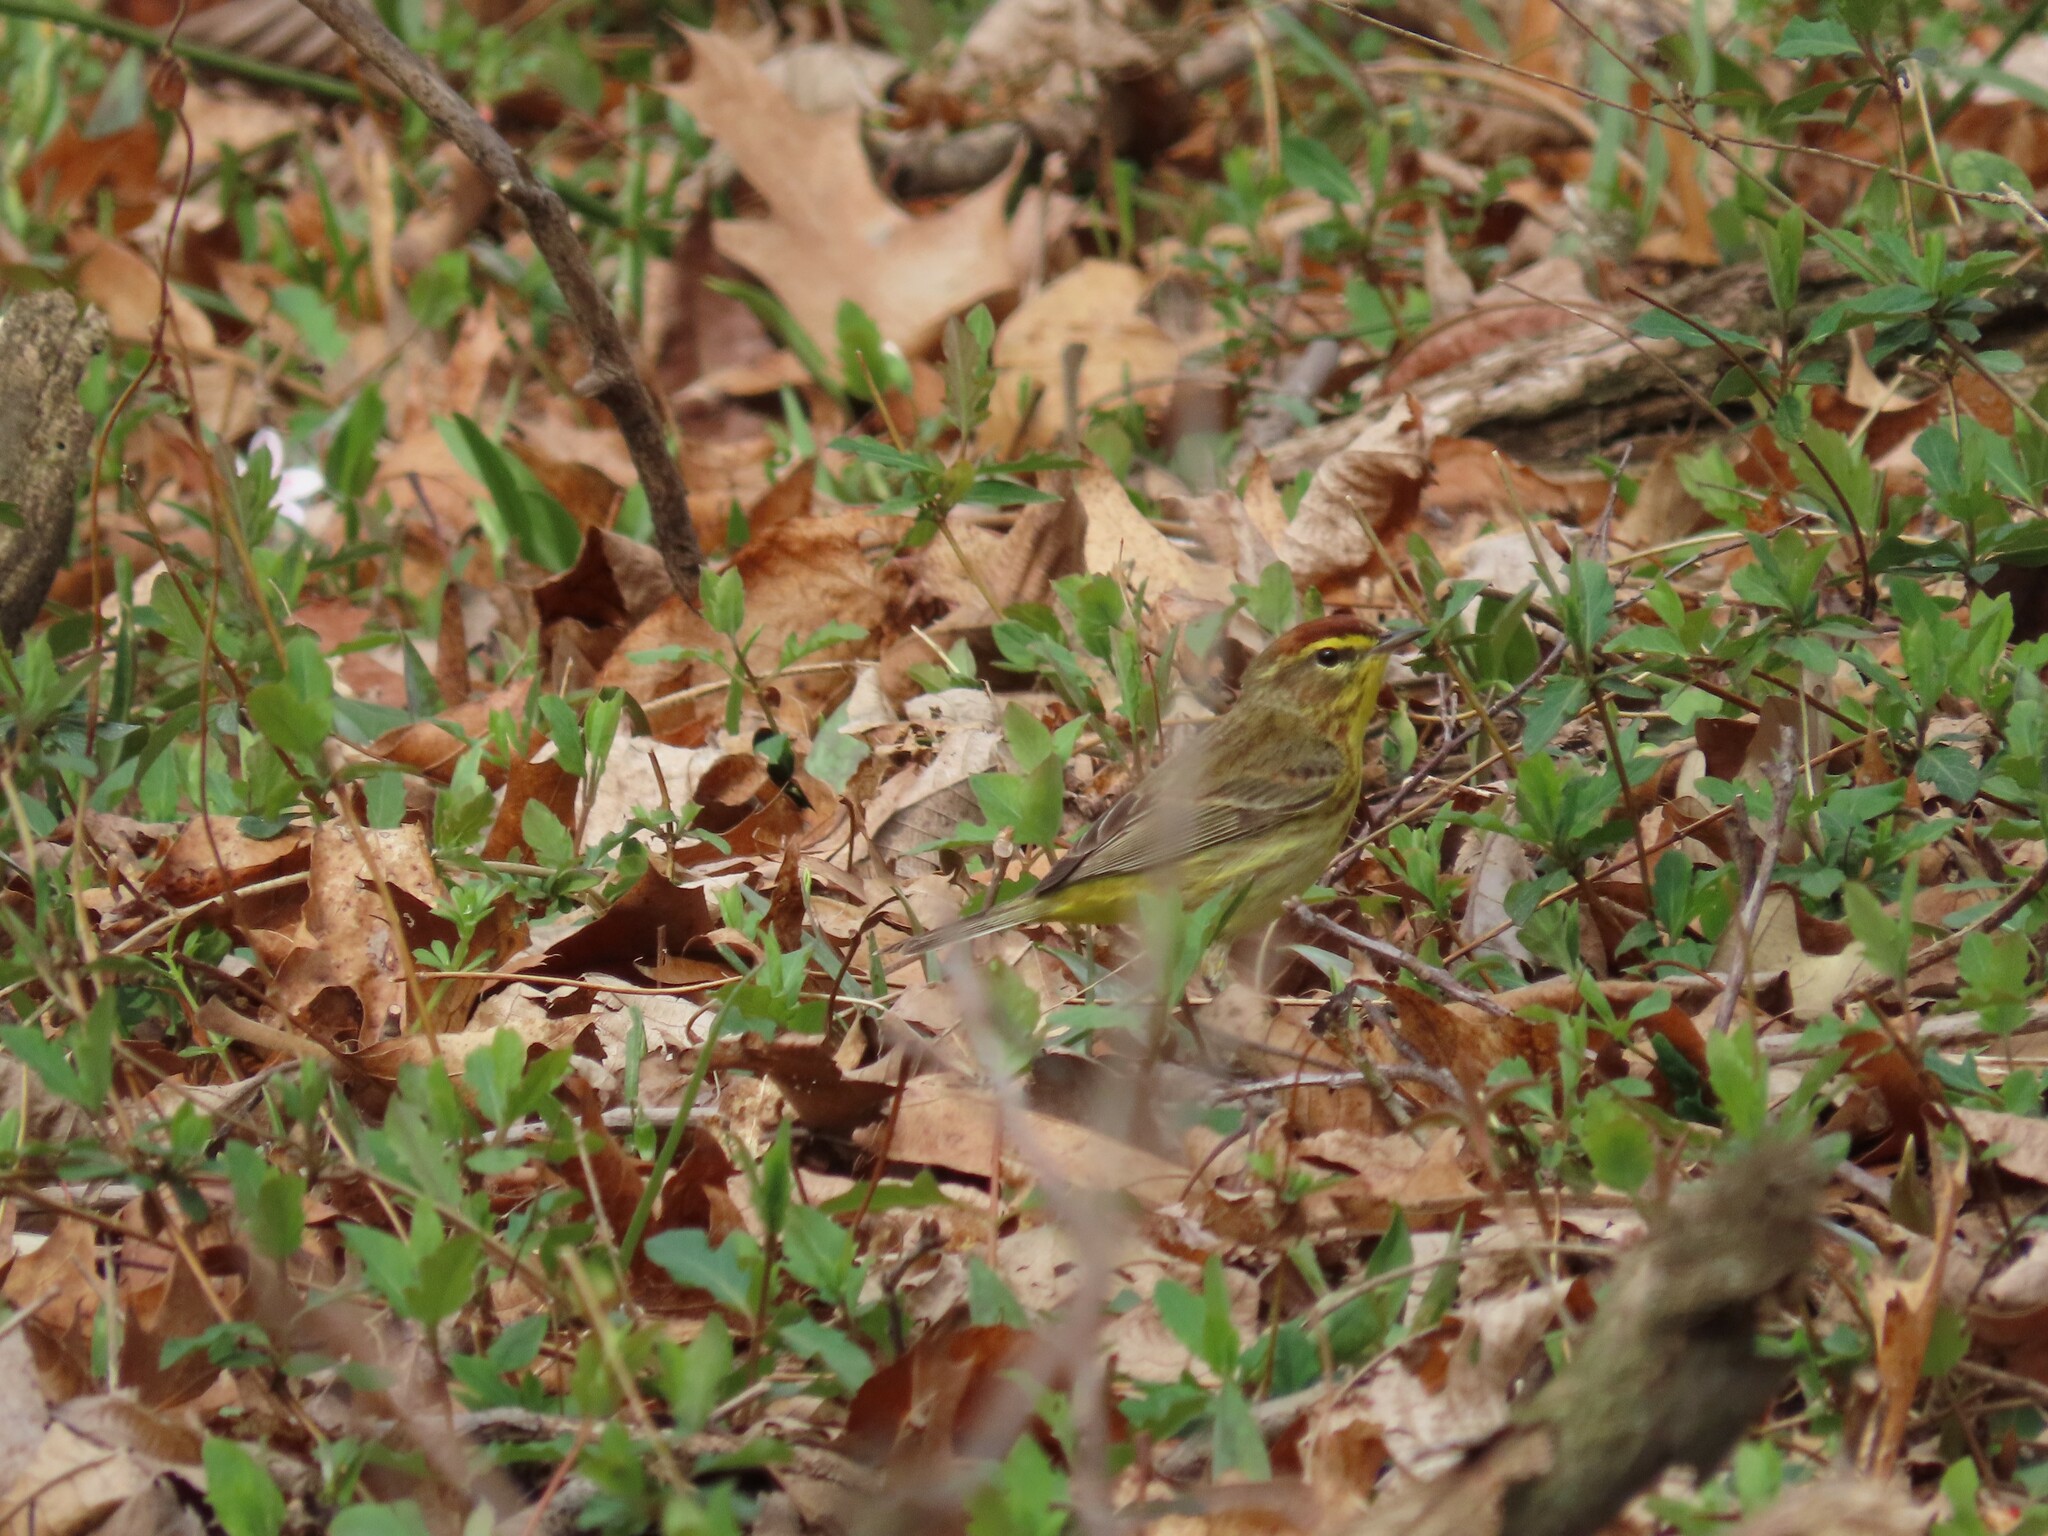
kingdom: Animalia
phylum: Chordata
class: Aves
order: Passeriformes
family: Parulidae
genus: Setophaga
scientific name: Setophaga palmarum
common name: Palm warbler
